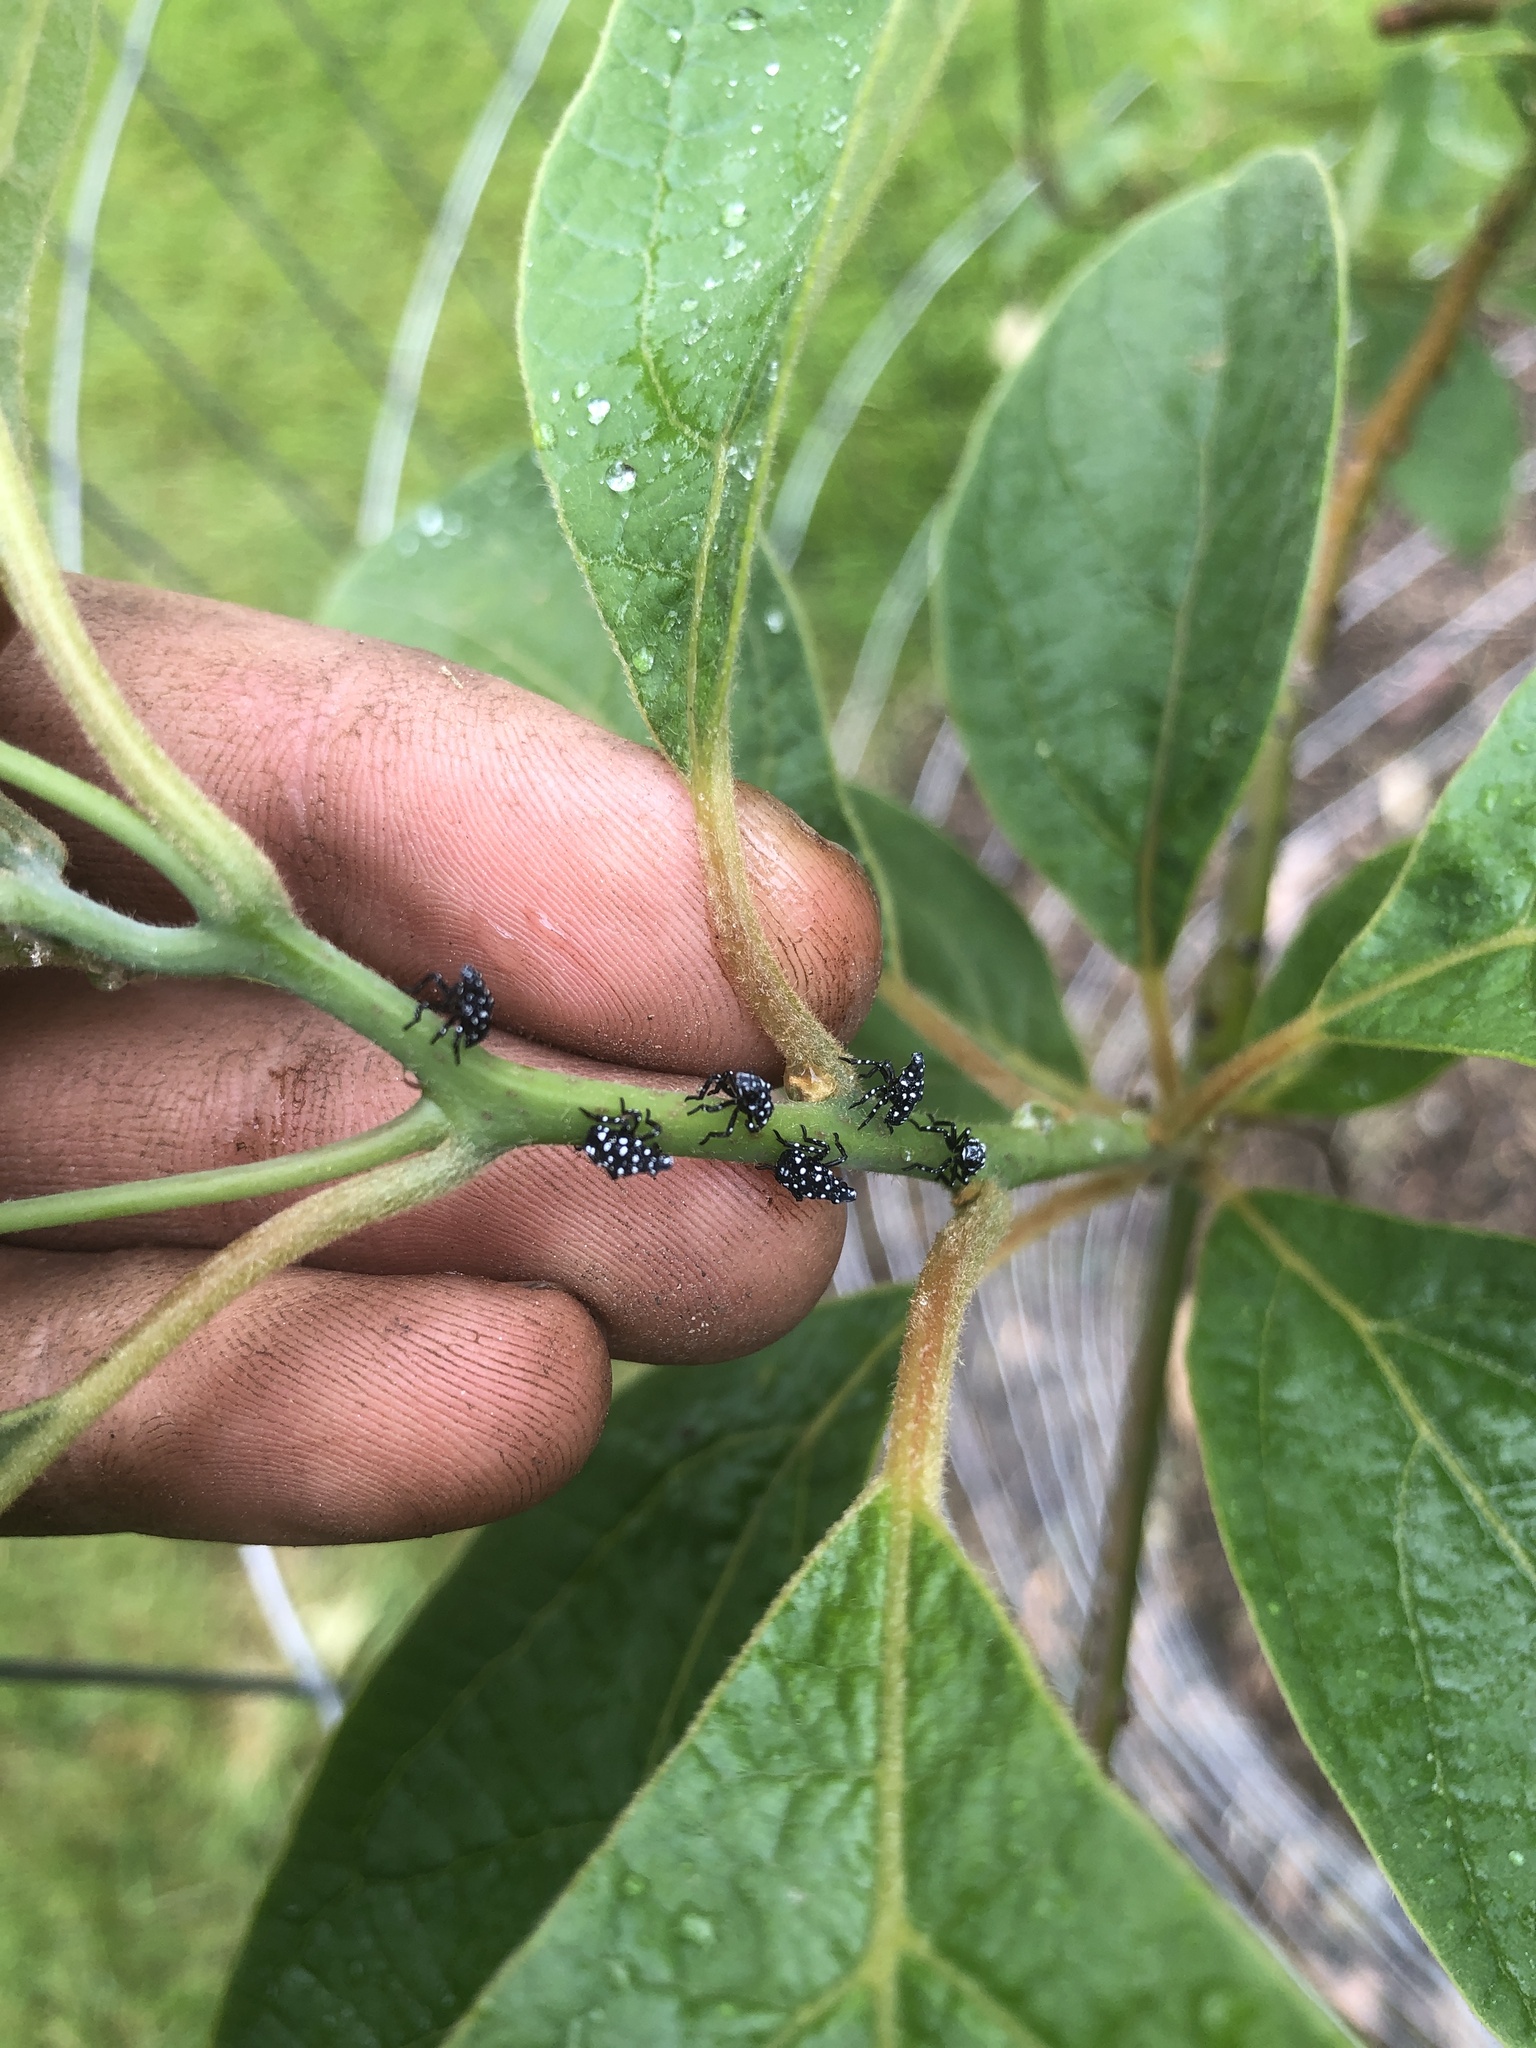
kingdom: Animalia
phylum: Arthropoda
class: Insecta
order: Hemiptera
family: Fulgoridae
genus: Lycorma
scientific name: Lycorma delicatula
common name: Spotted lanternfly
